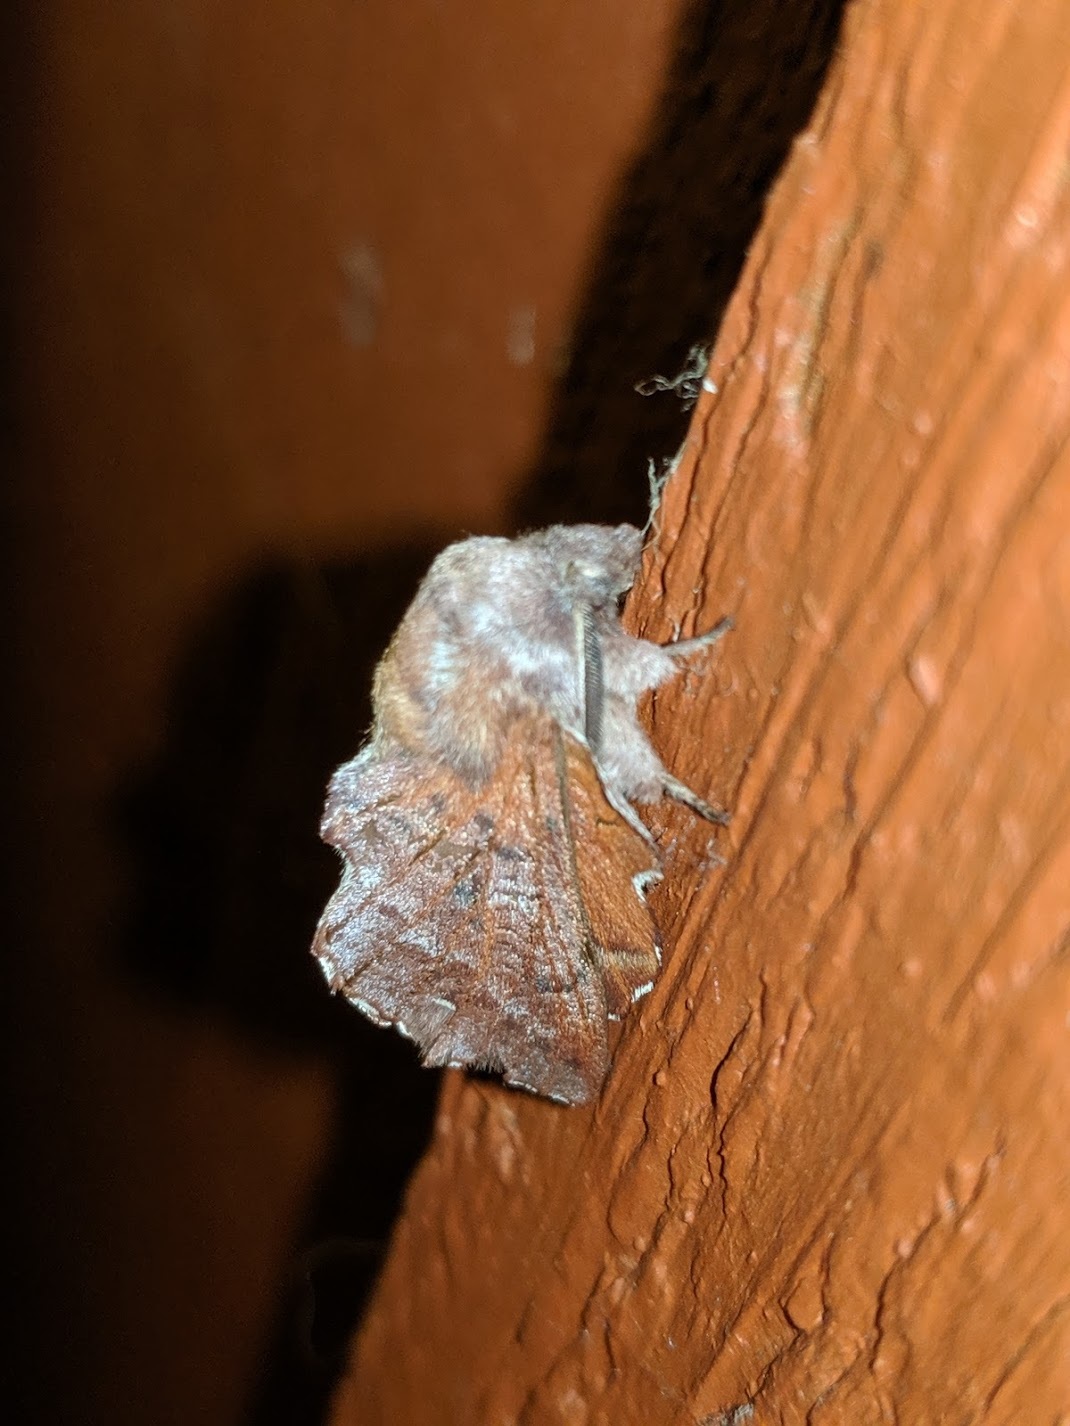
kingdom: Animalia
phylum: Arthropoda
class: Insecta
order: Lepidoptera
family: Lasiocampidae
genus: Phyllodesma
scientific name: Phyllodesma americana
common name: American lappet moth
